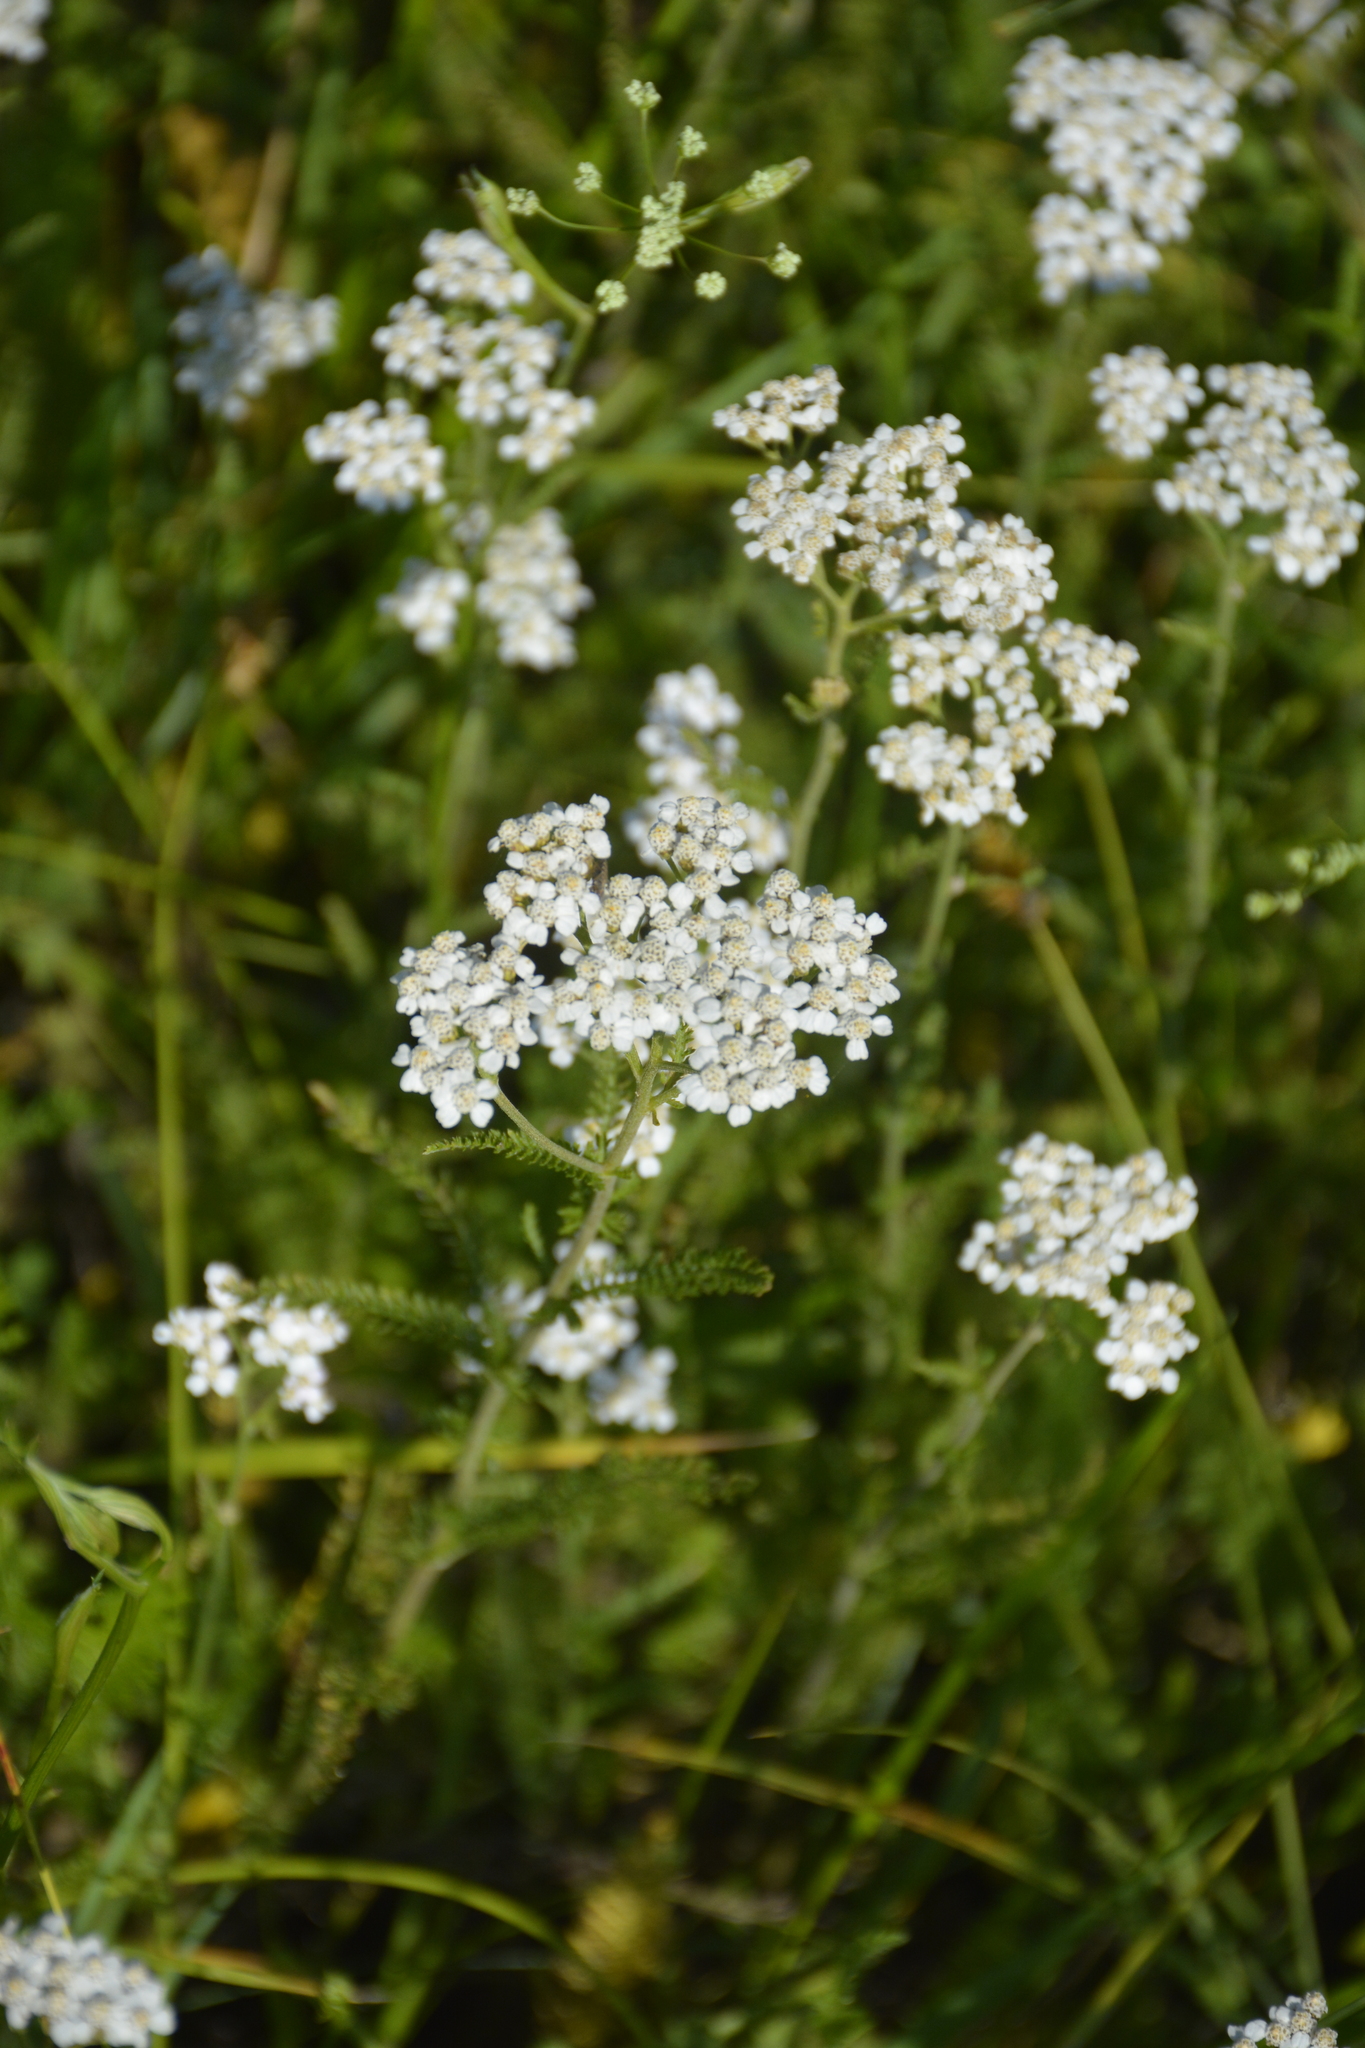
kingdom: Plantae
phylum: Tracheophyta
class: Magnoliopsida
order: Asterales
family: Asteraceae
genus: Achillea
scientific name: Achillea millefolium
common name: Yarrow
